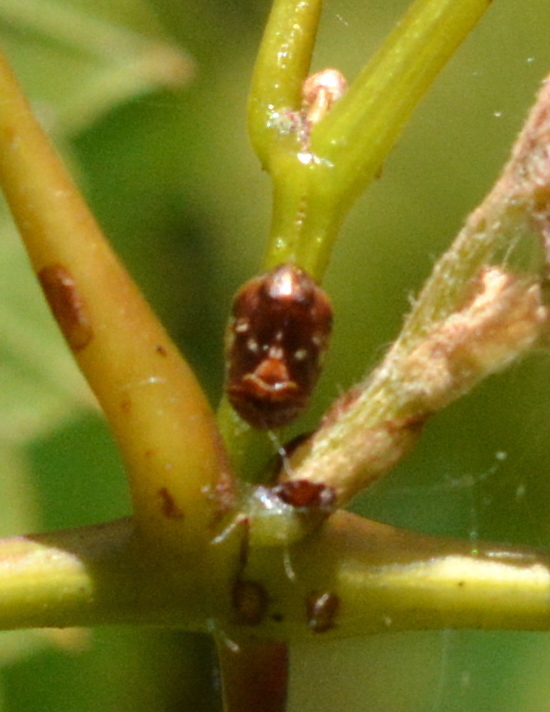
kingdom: Animalia
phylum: Arthropoda
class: Insecta
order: Hemiptera
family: Clastopteridae
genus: Clastoptera
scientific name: Clastoptera
